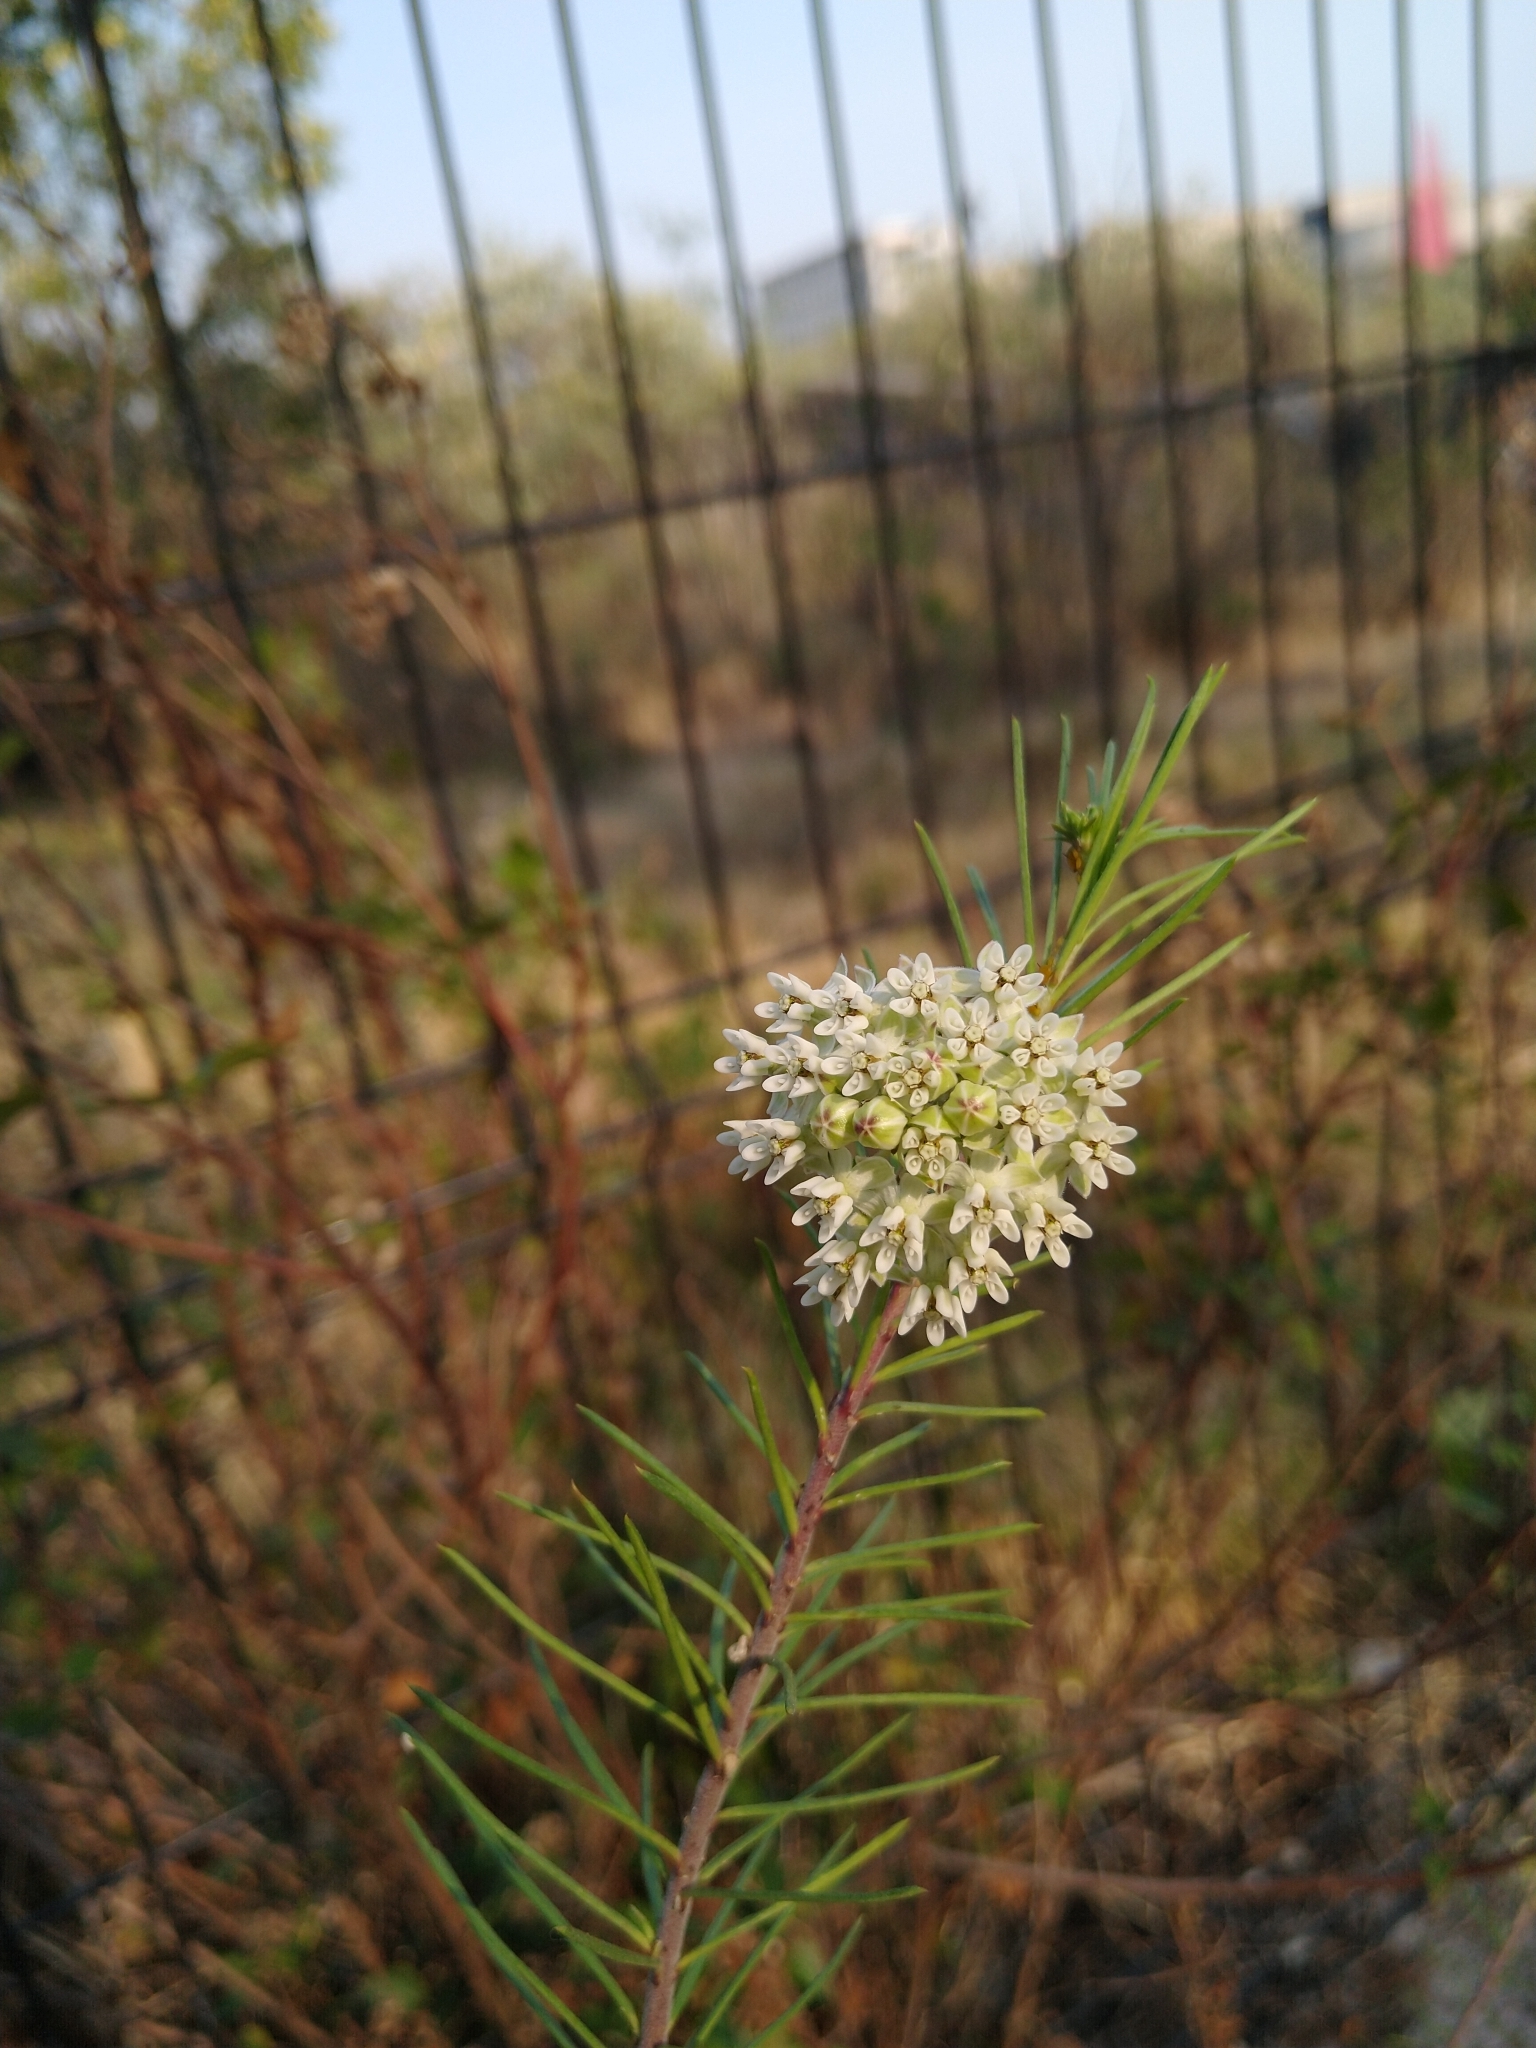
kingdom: Plantae
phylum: Tracheophyta
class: Magnoliopsida
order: Gentianales
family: Apocynaceae
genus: Asclepias
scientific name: Asclepias linaria
